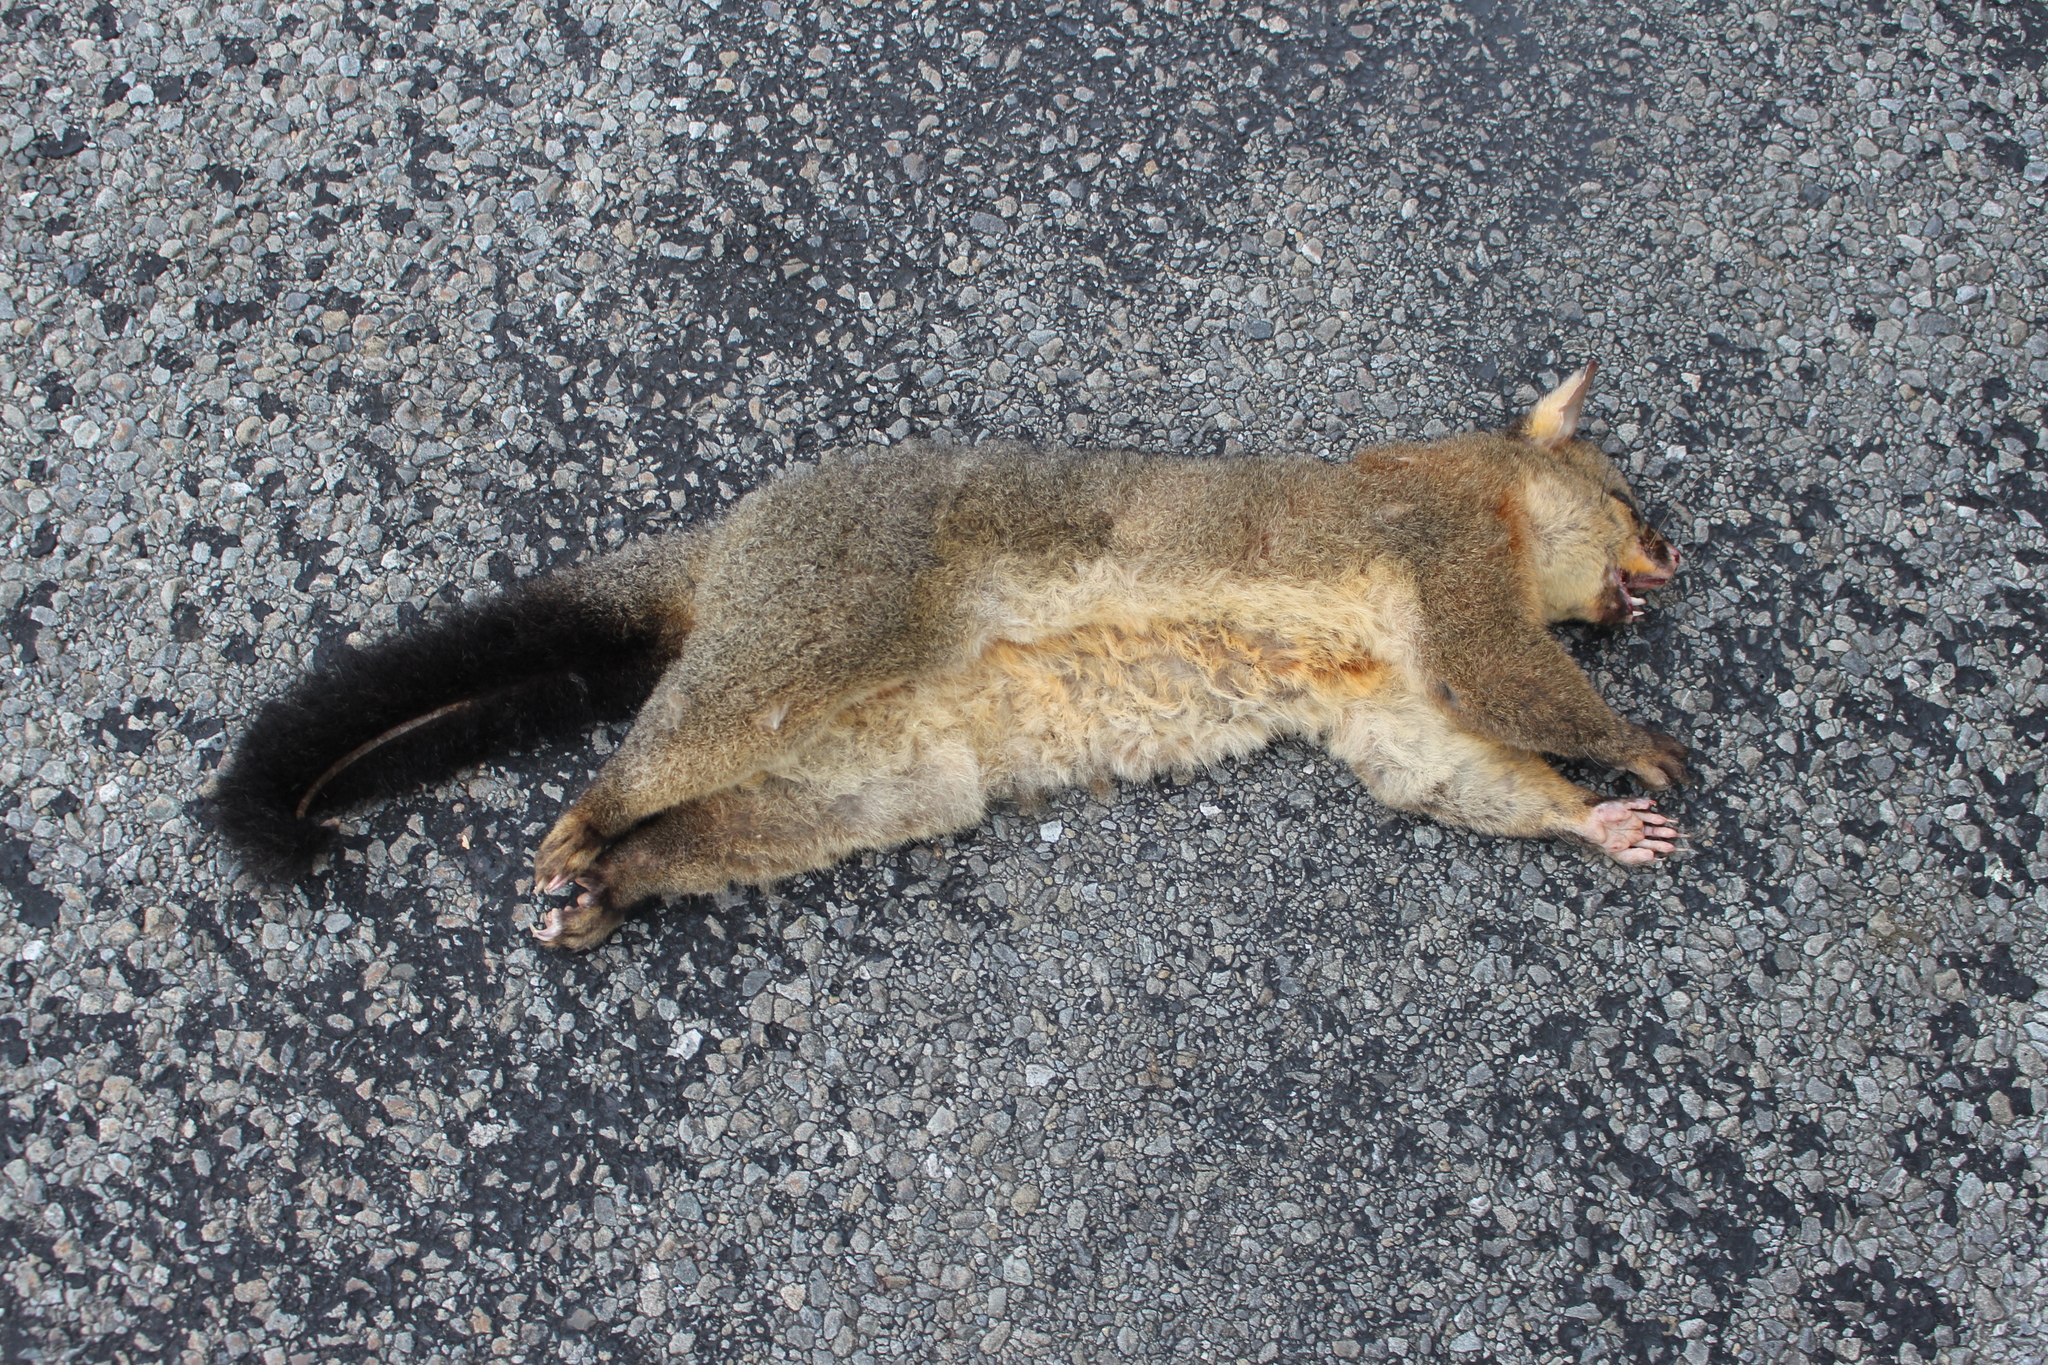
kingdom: Animalia
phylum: Chordata
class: Mammalia
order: Diprotodontia
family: Phalangeridae
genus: Trichosurus
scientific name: Trichosurus vulpecula
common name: Common brushtail
